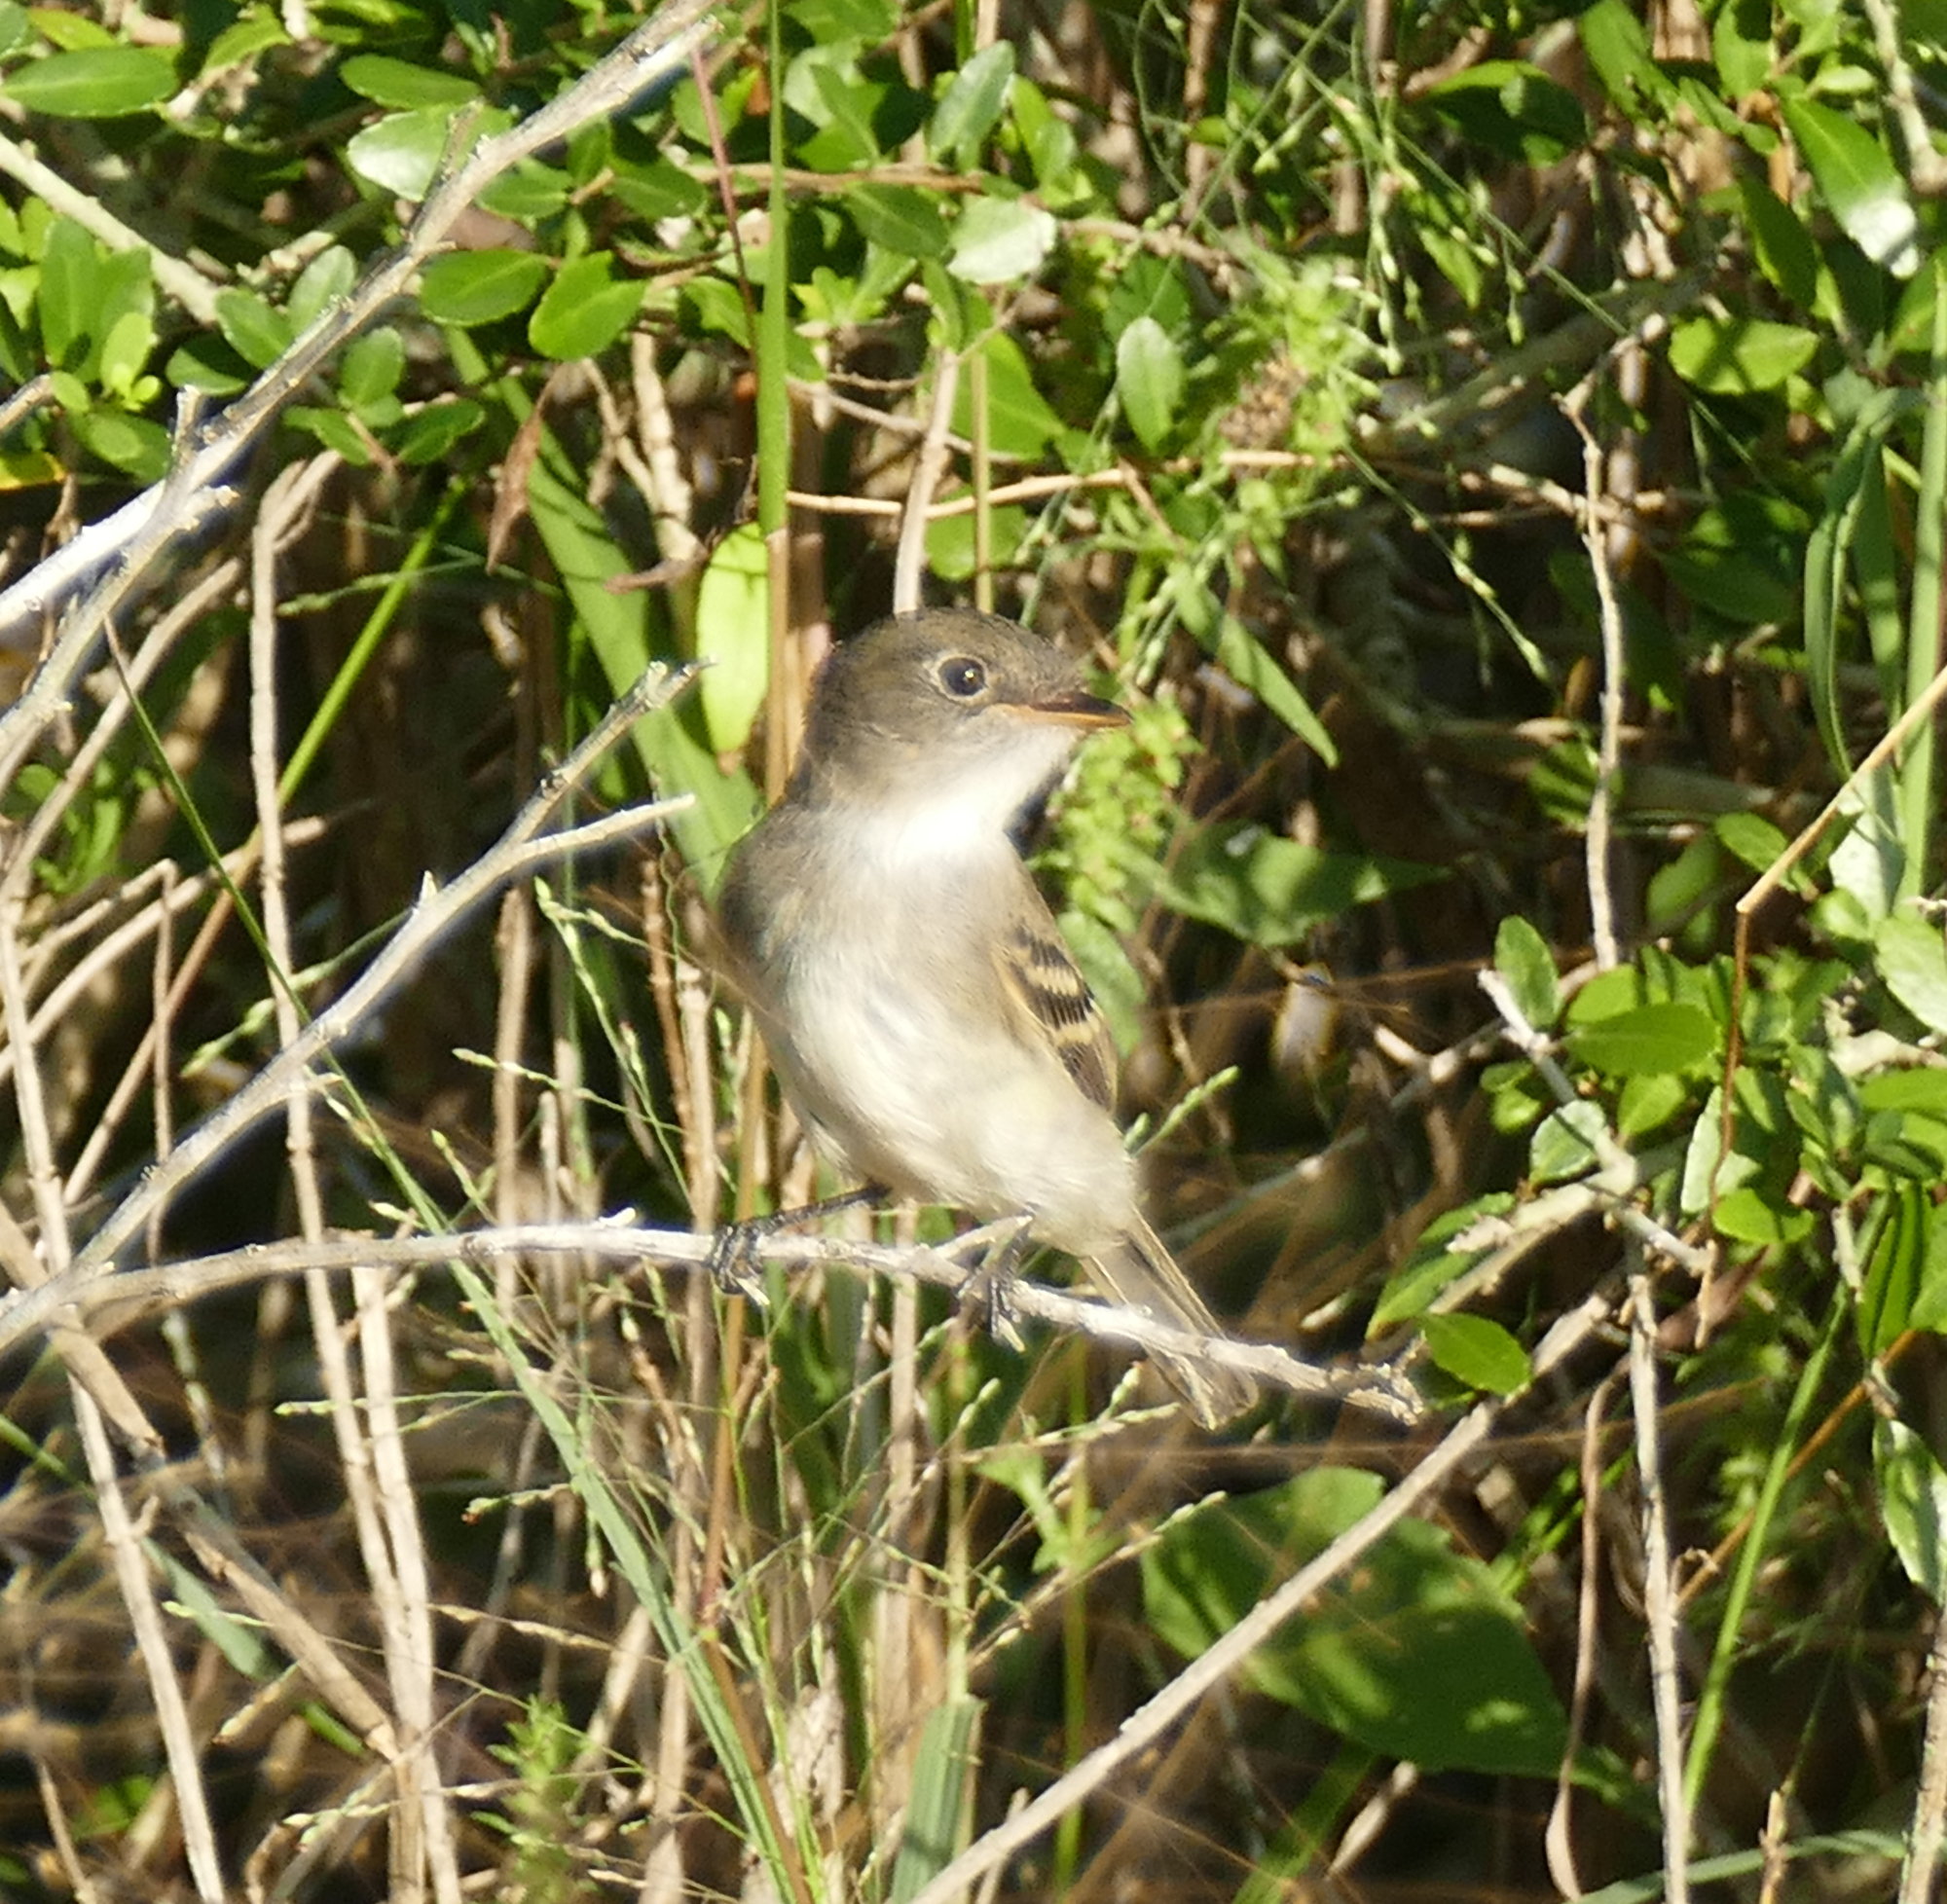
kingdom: Animalia
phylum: Chordata
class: Aves
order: Passeriformes
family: Tyrannidae
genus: Empidonax
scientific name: Empidonax minimus
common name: Least flycatcher
